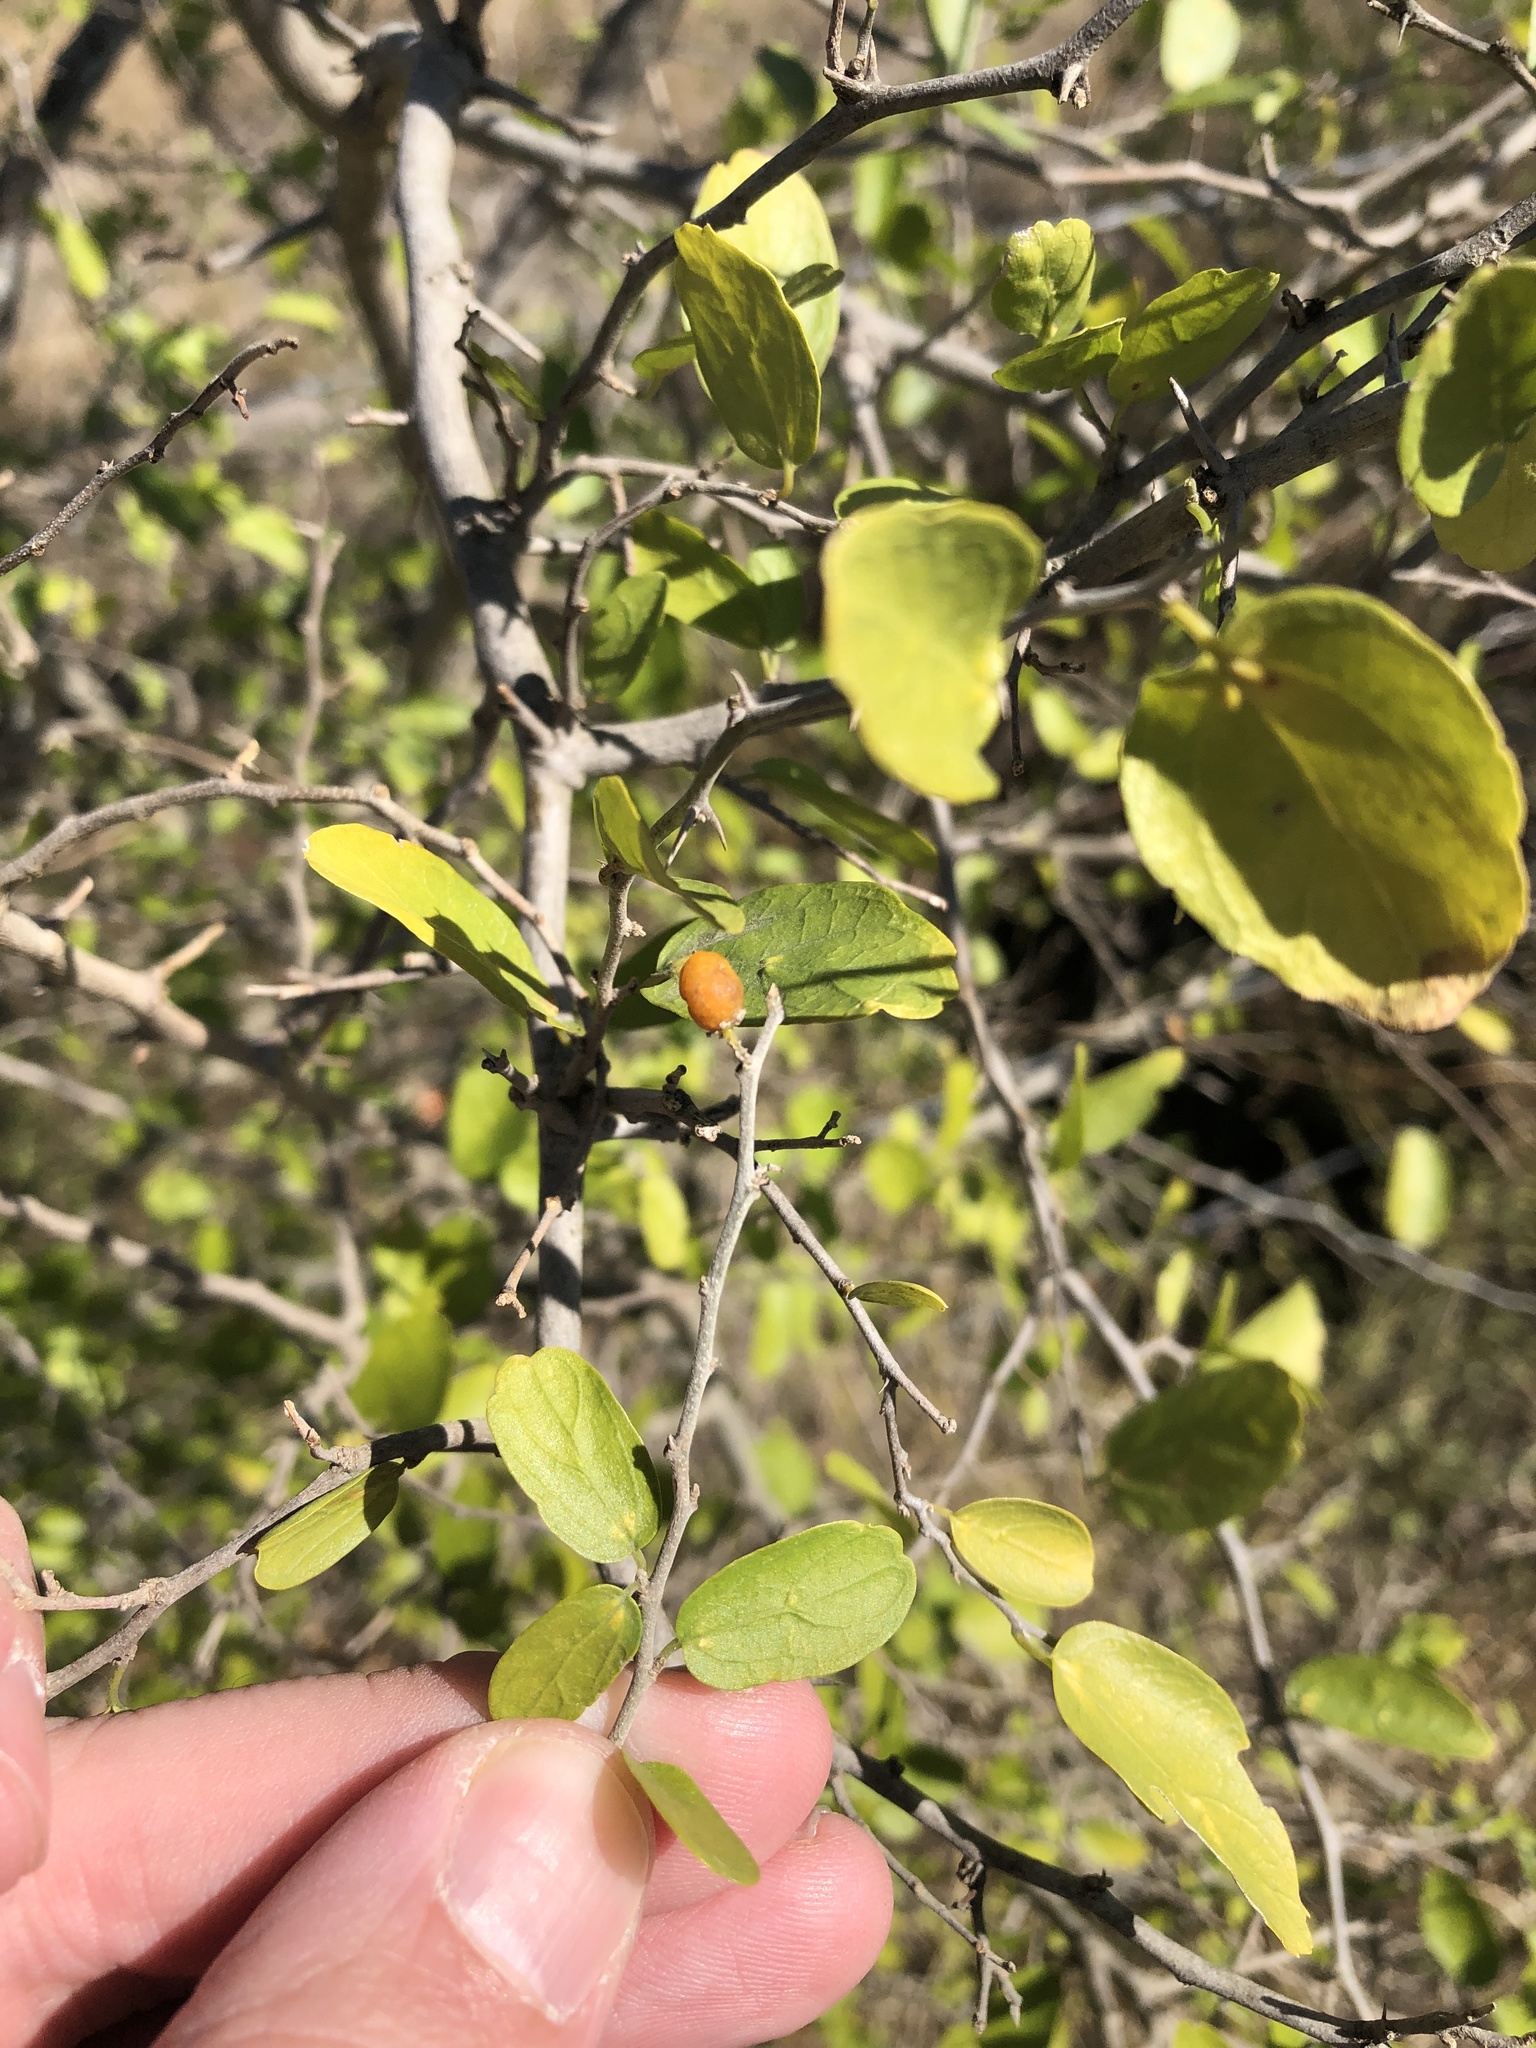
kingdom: Plantae
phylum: Tracheophyta
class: Magnoliopsida
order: Rosales
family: Cannabaceae
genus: Celtis
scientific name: Celtis pallida
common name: Desert hackberry
